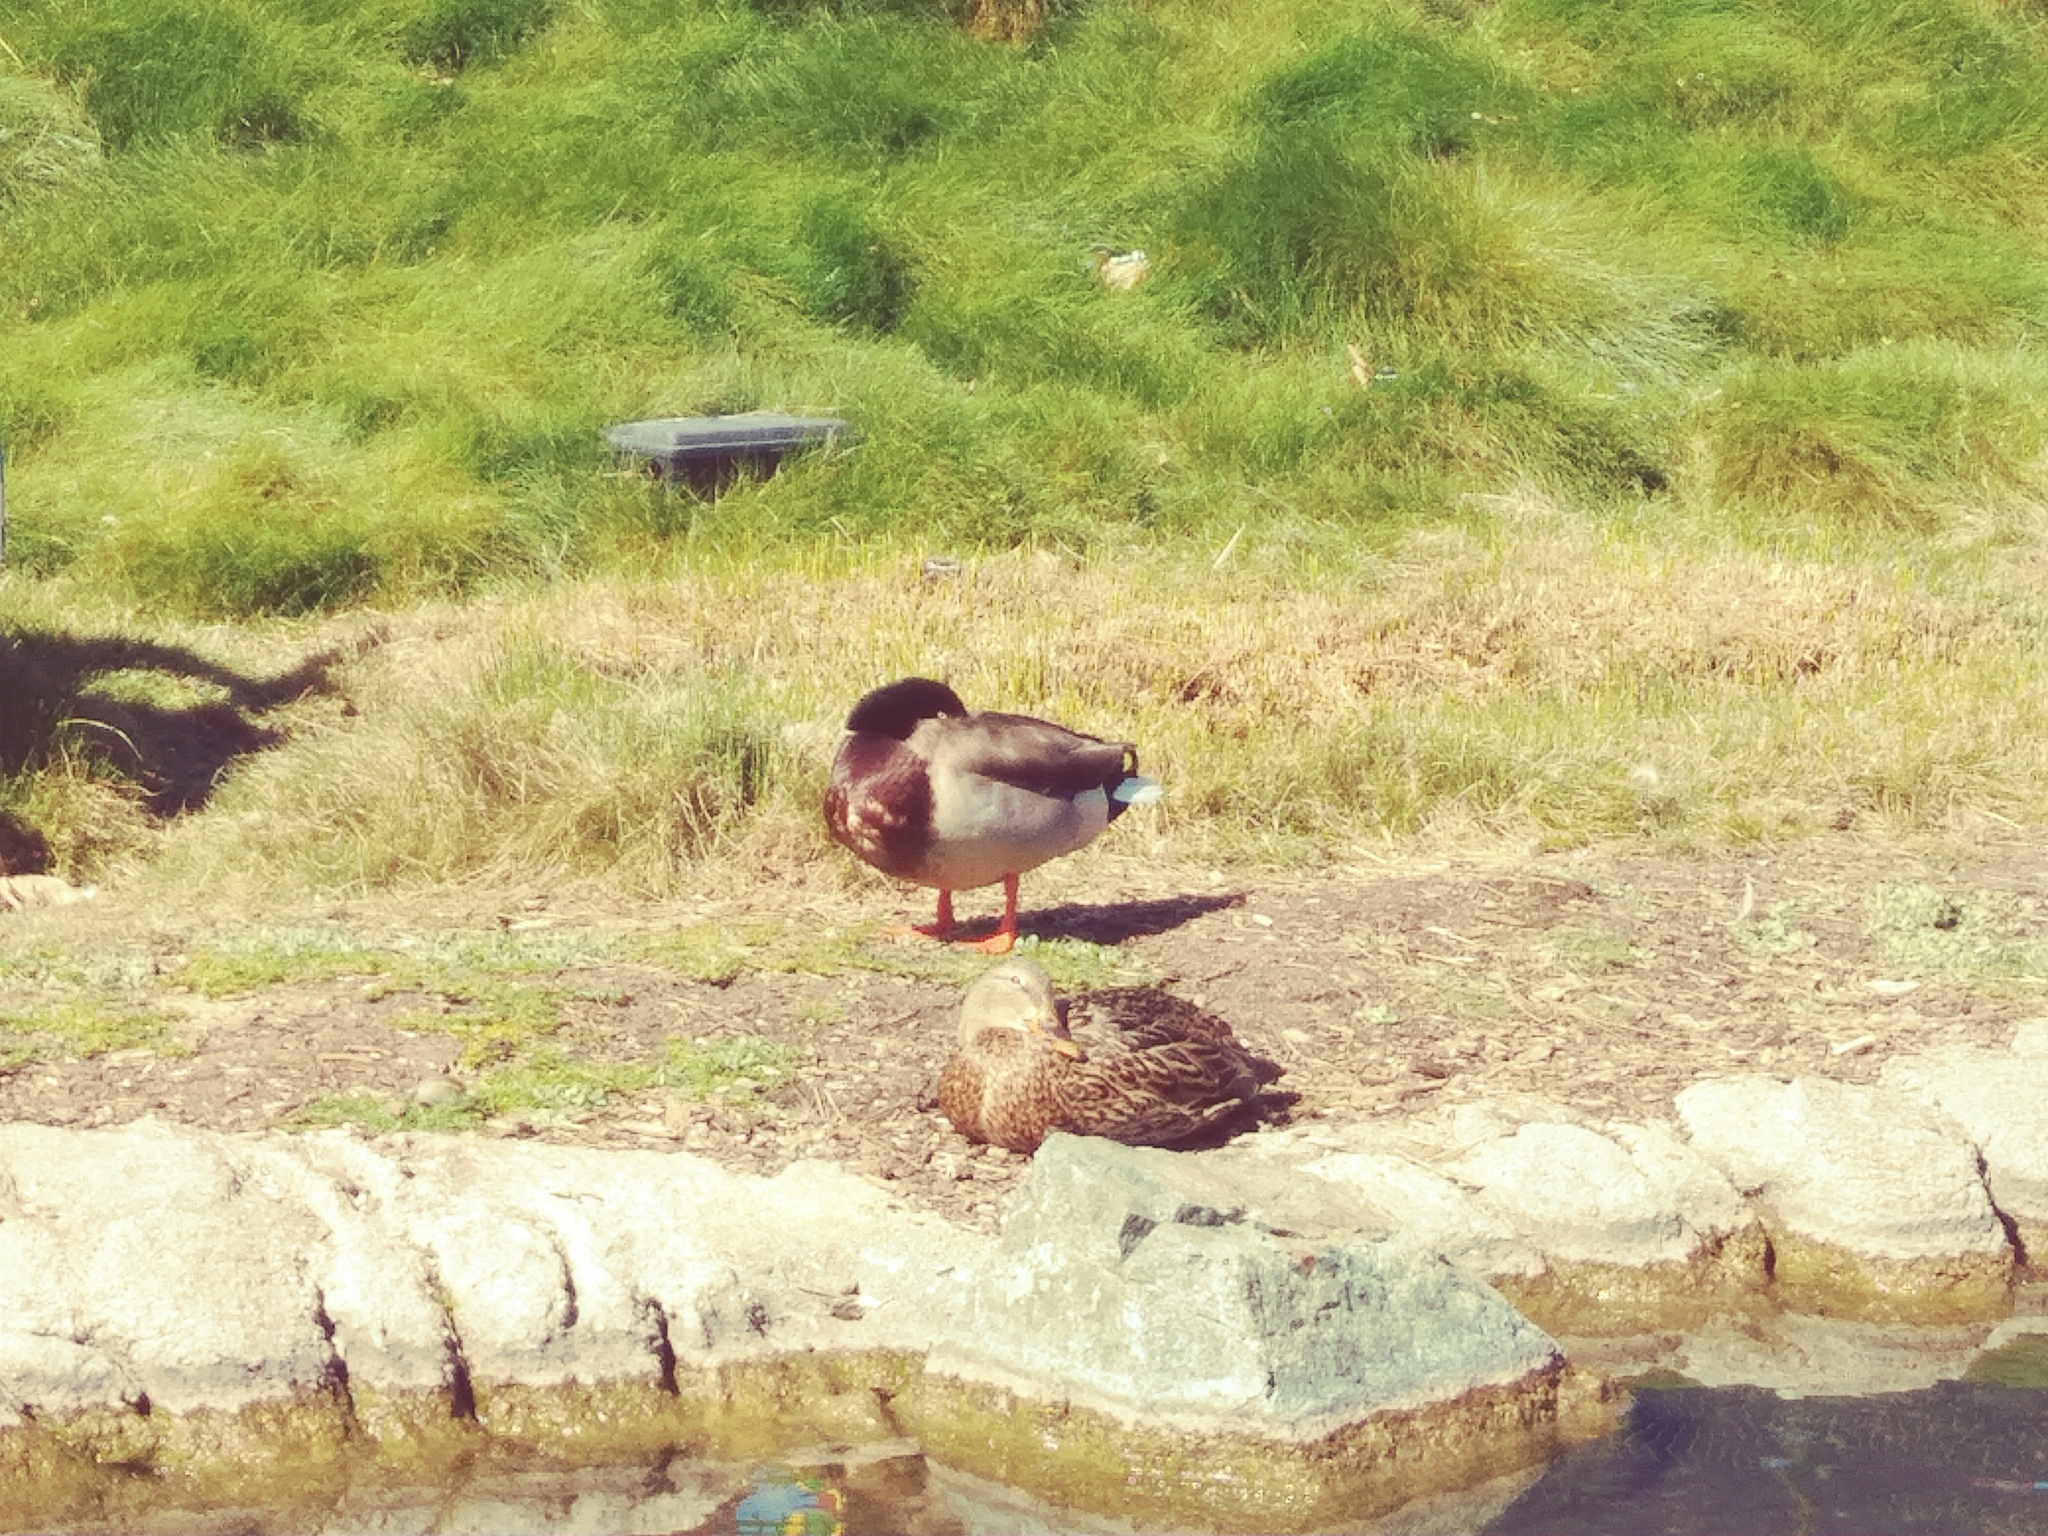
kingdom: Animalia
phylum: Chordata
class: Aves
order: Anseriformes
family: Anatidae
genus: Anas
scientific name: Anas platyrhynchos
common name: Mallard
